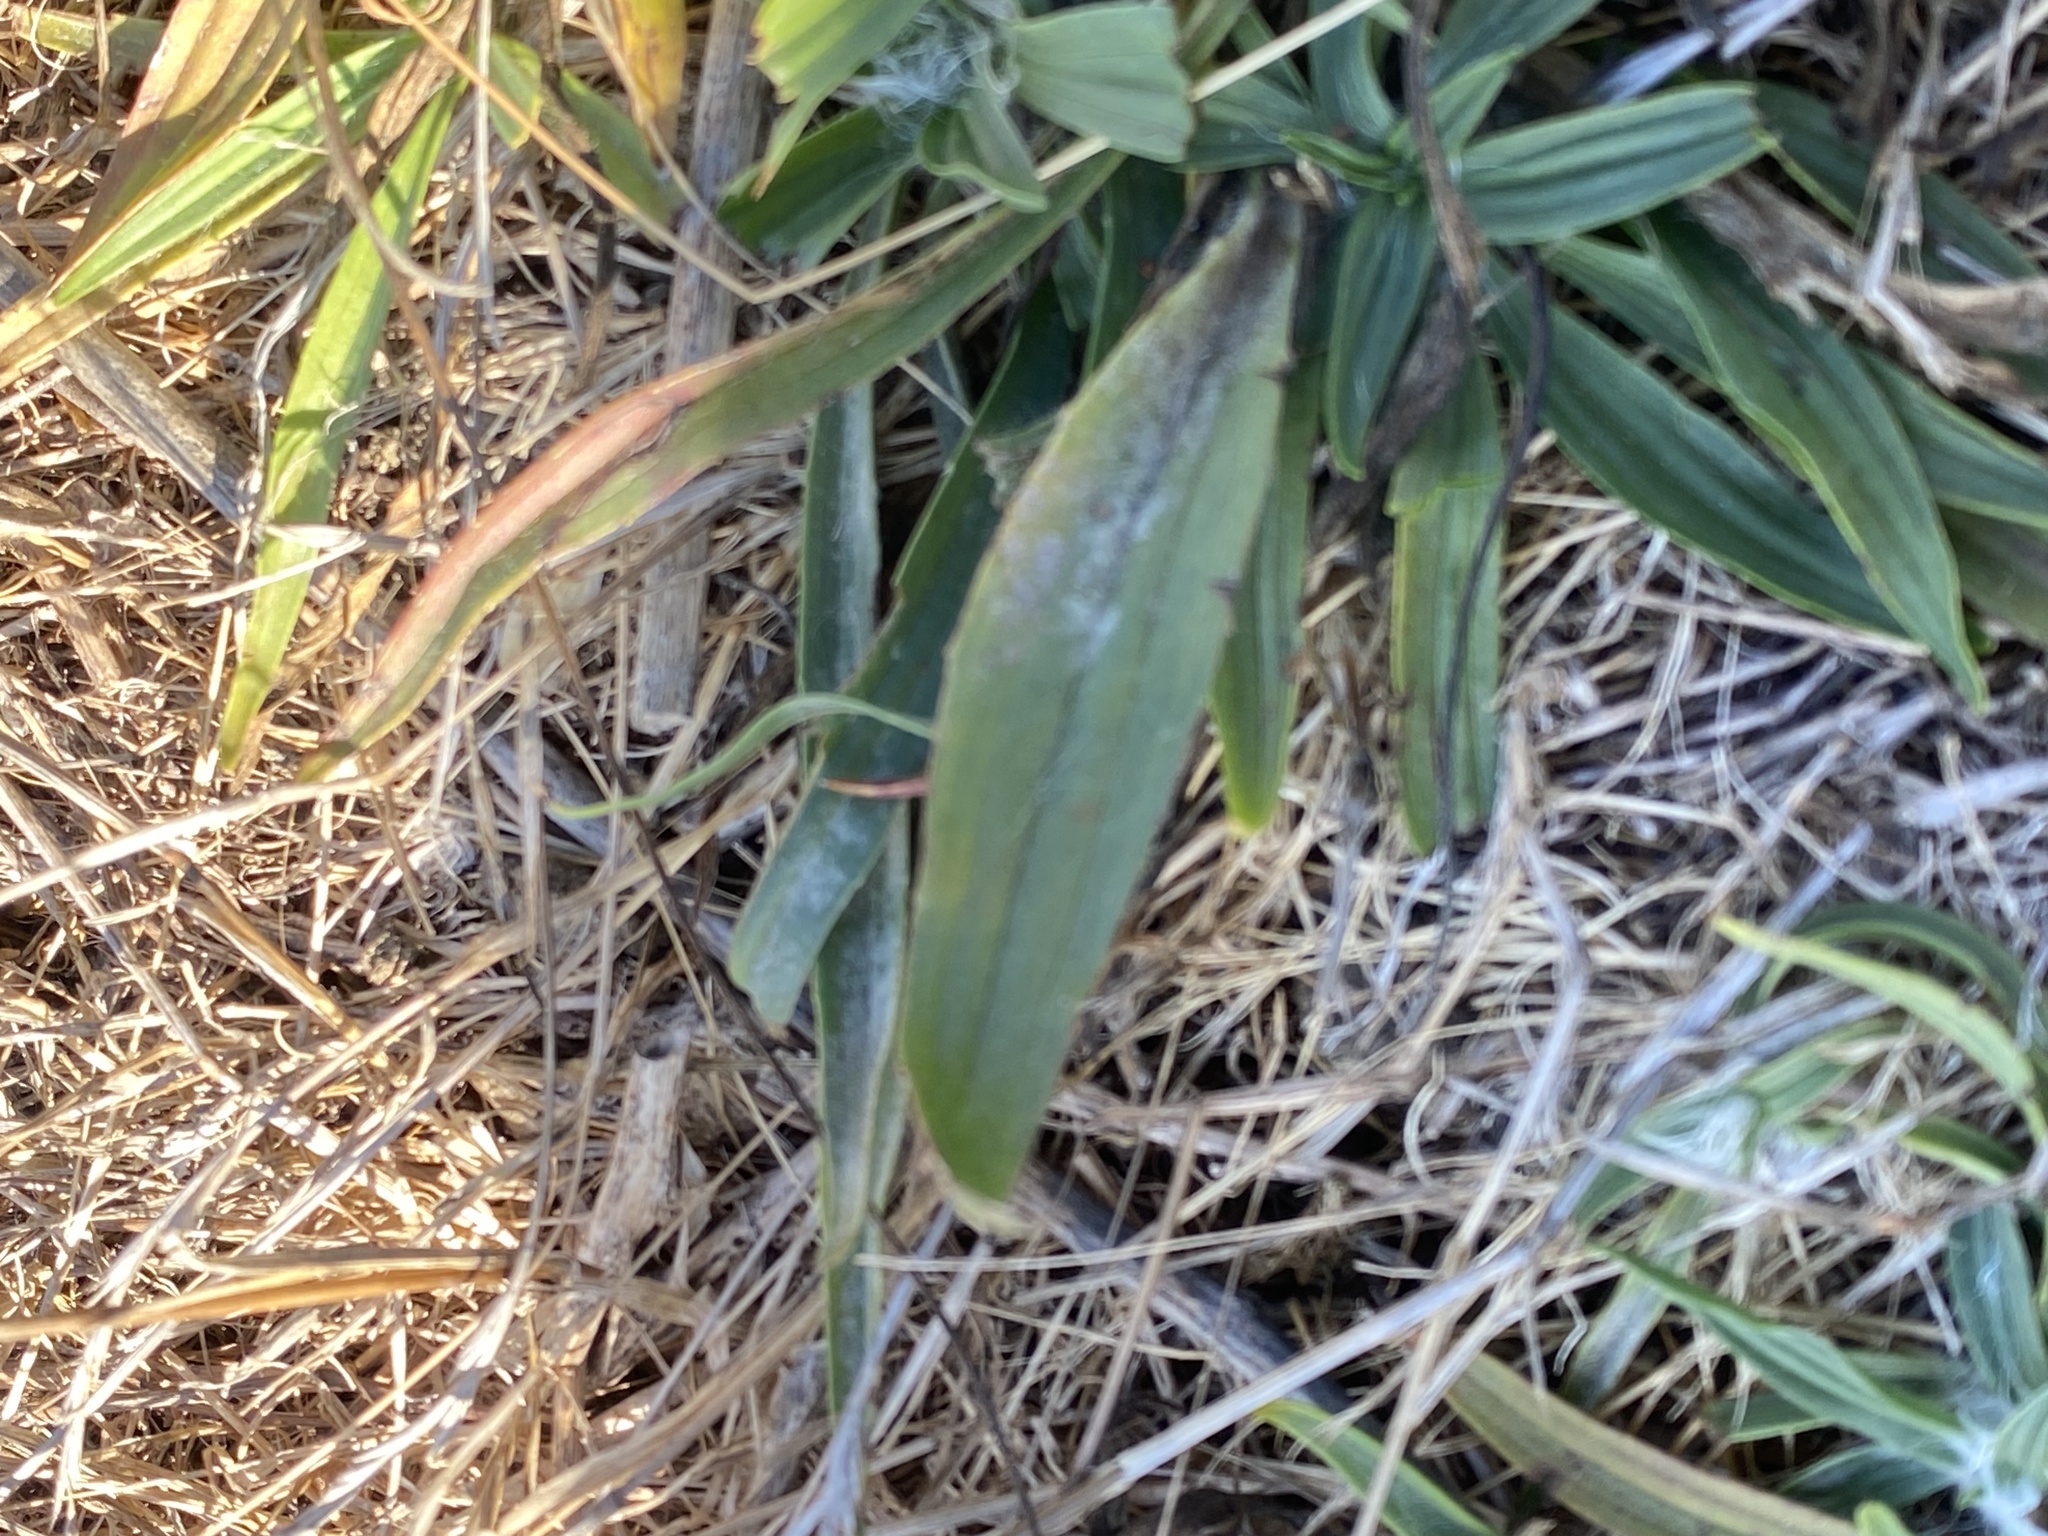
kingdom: Plantae
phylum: Tracheophyta
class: Magnoliopsida
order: Lamiales
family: Plantaginaceae
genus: Plantago
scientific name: Plantago lanceolata
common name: Ribwort plantain
